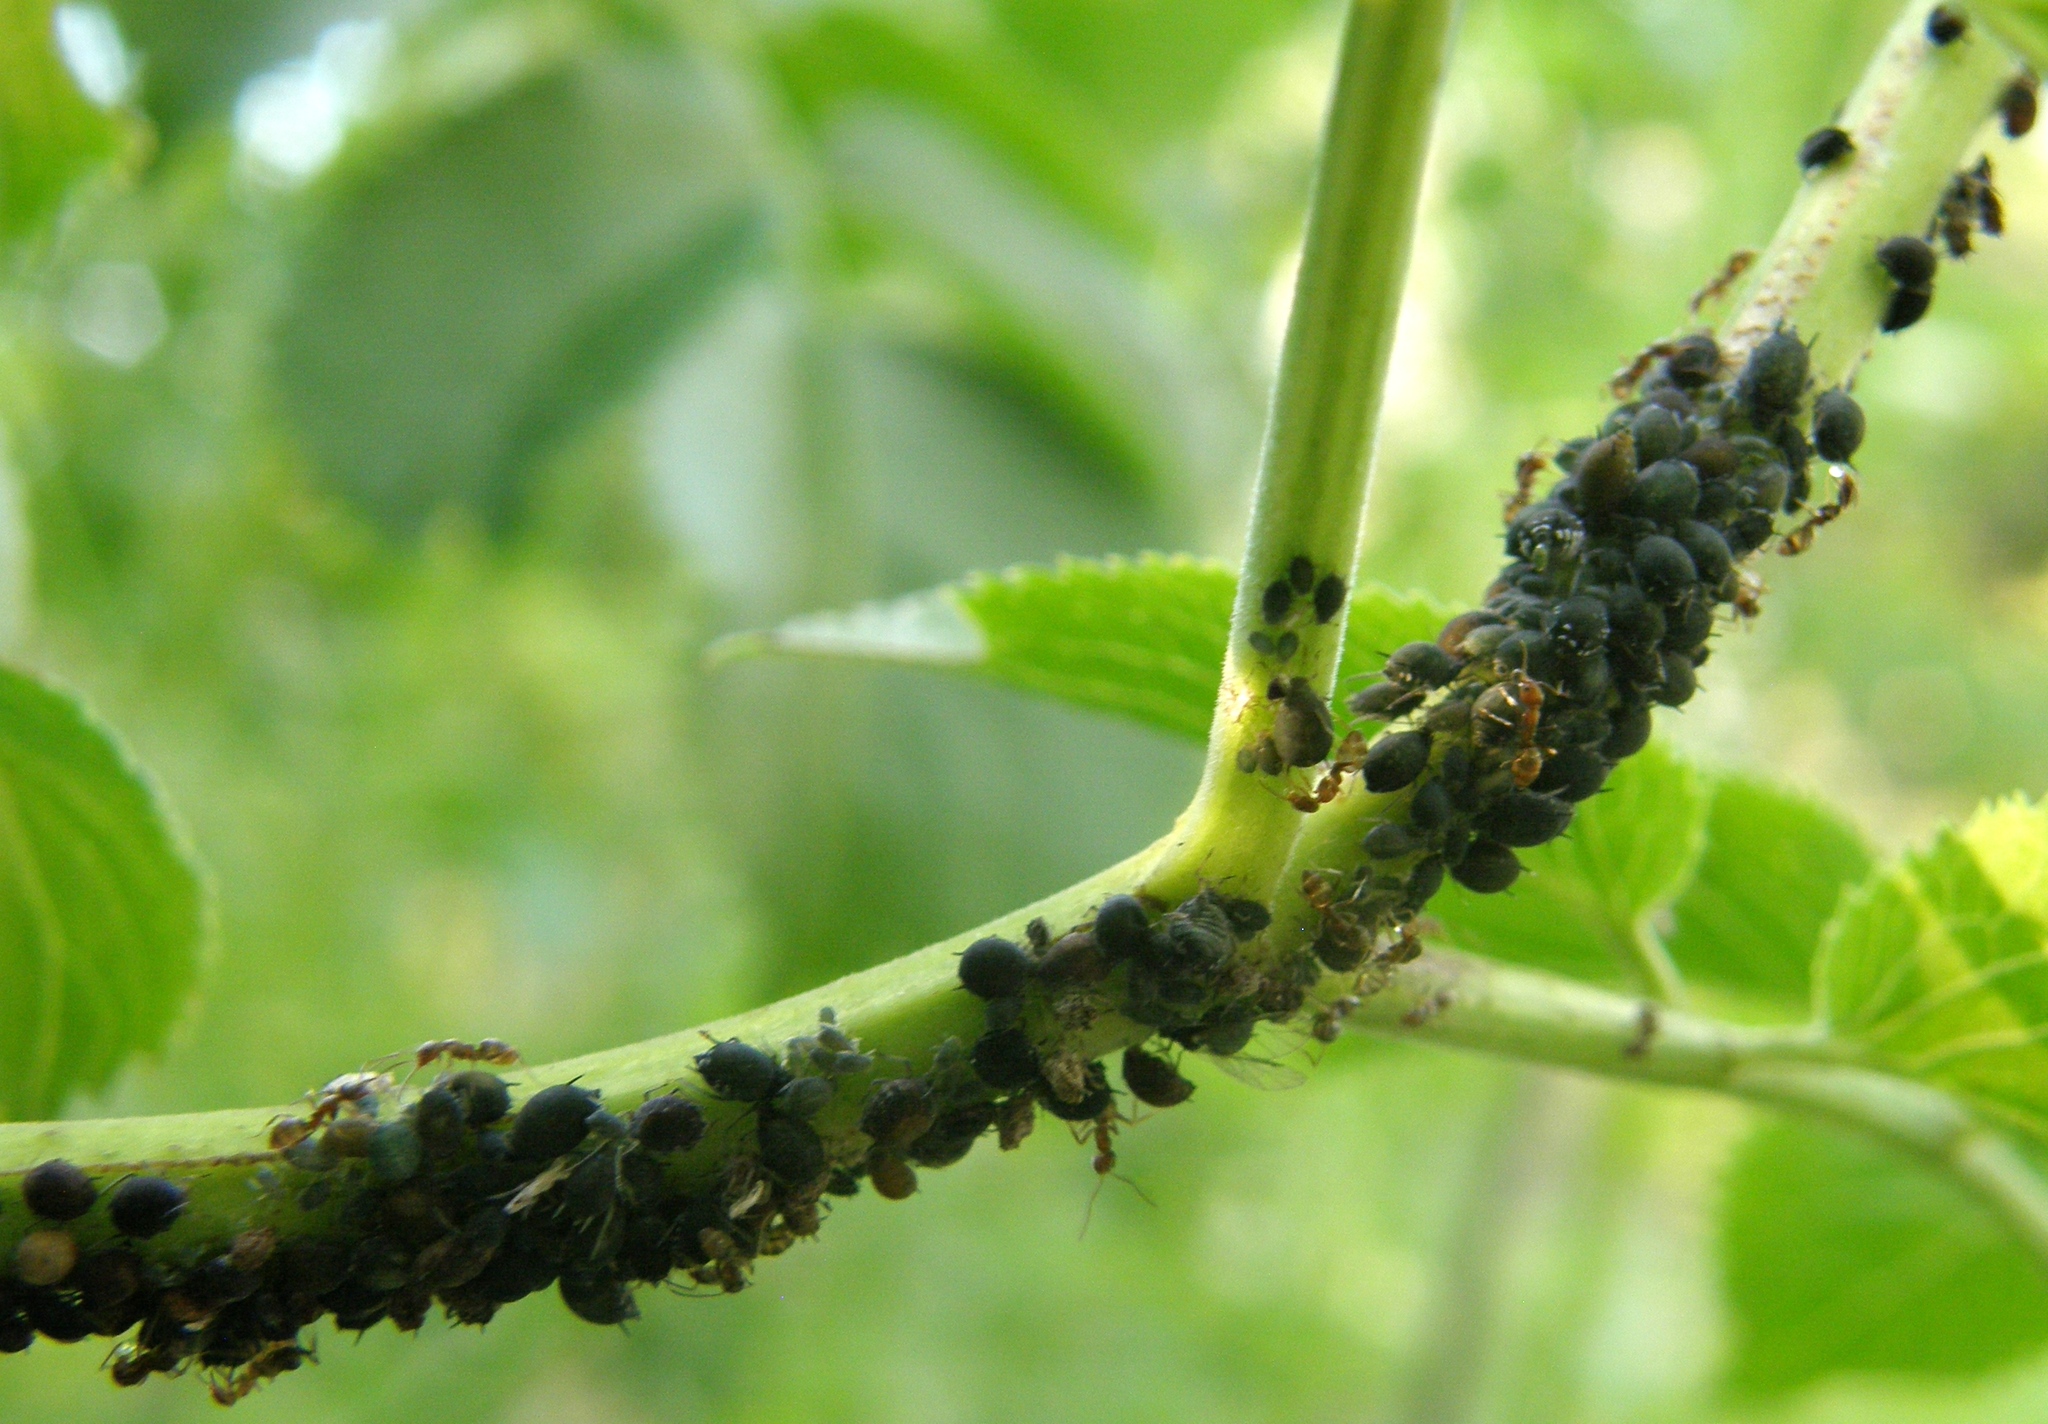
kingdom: Animalia
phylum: Arthropoda
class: Insecta
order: Hymenoptera
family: Formicidae
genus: Linepithema
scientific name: Linepithema humile
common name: Argentine ant
